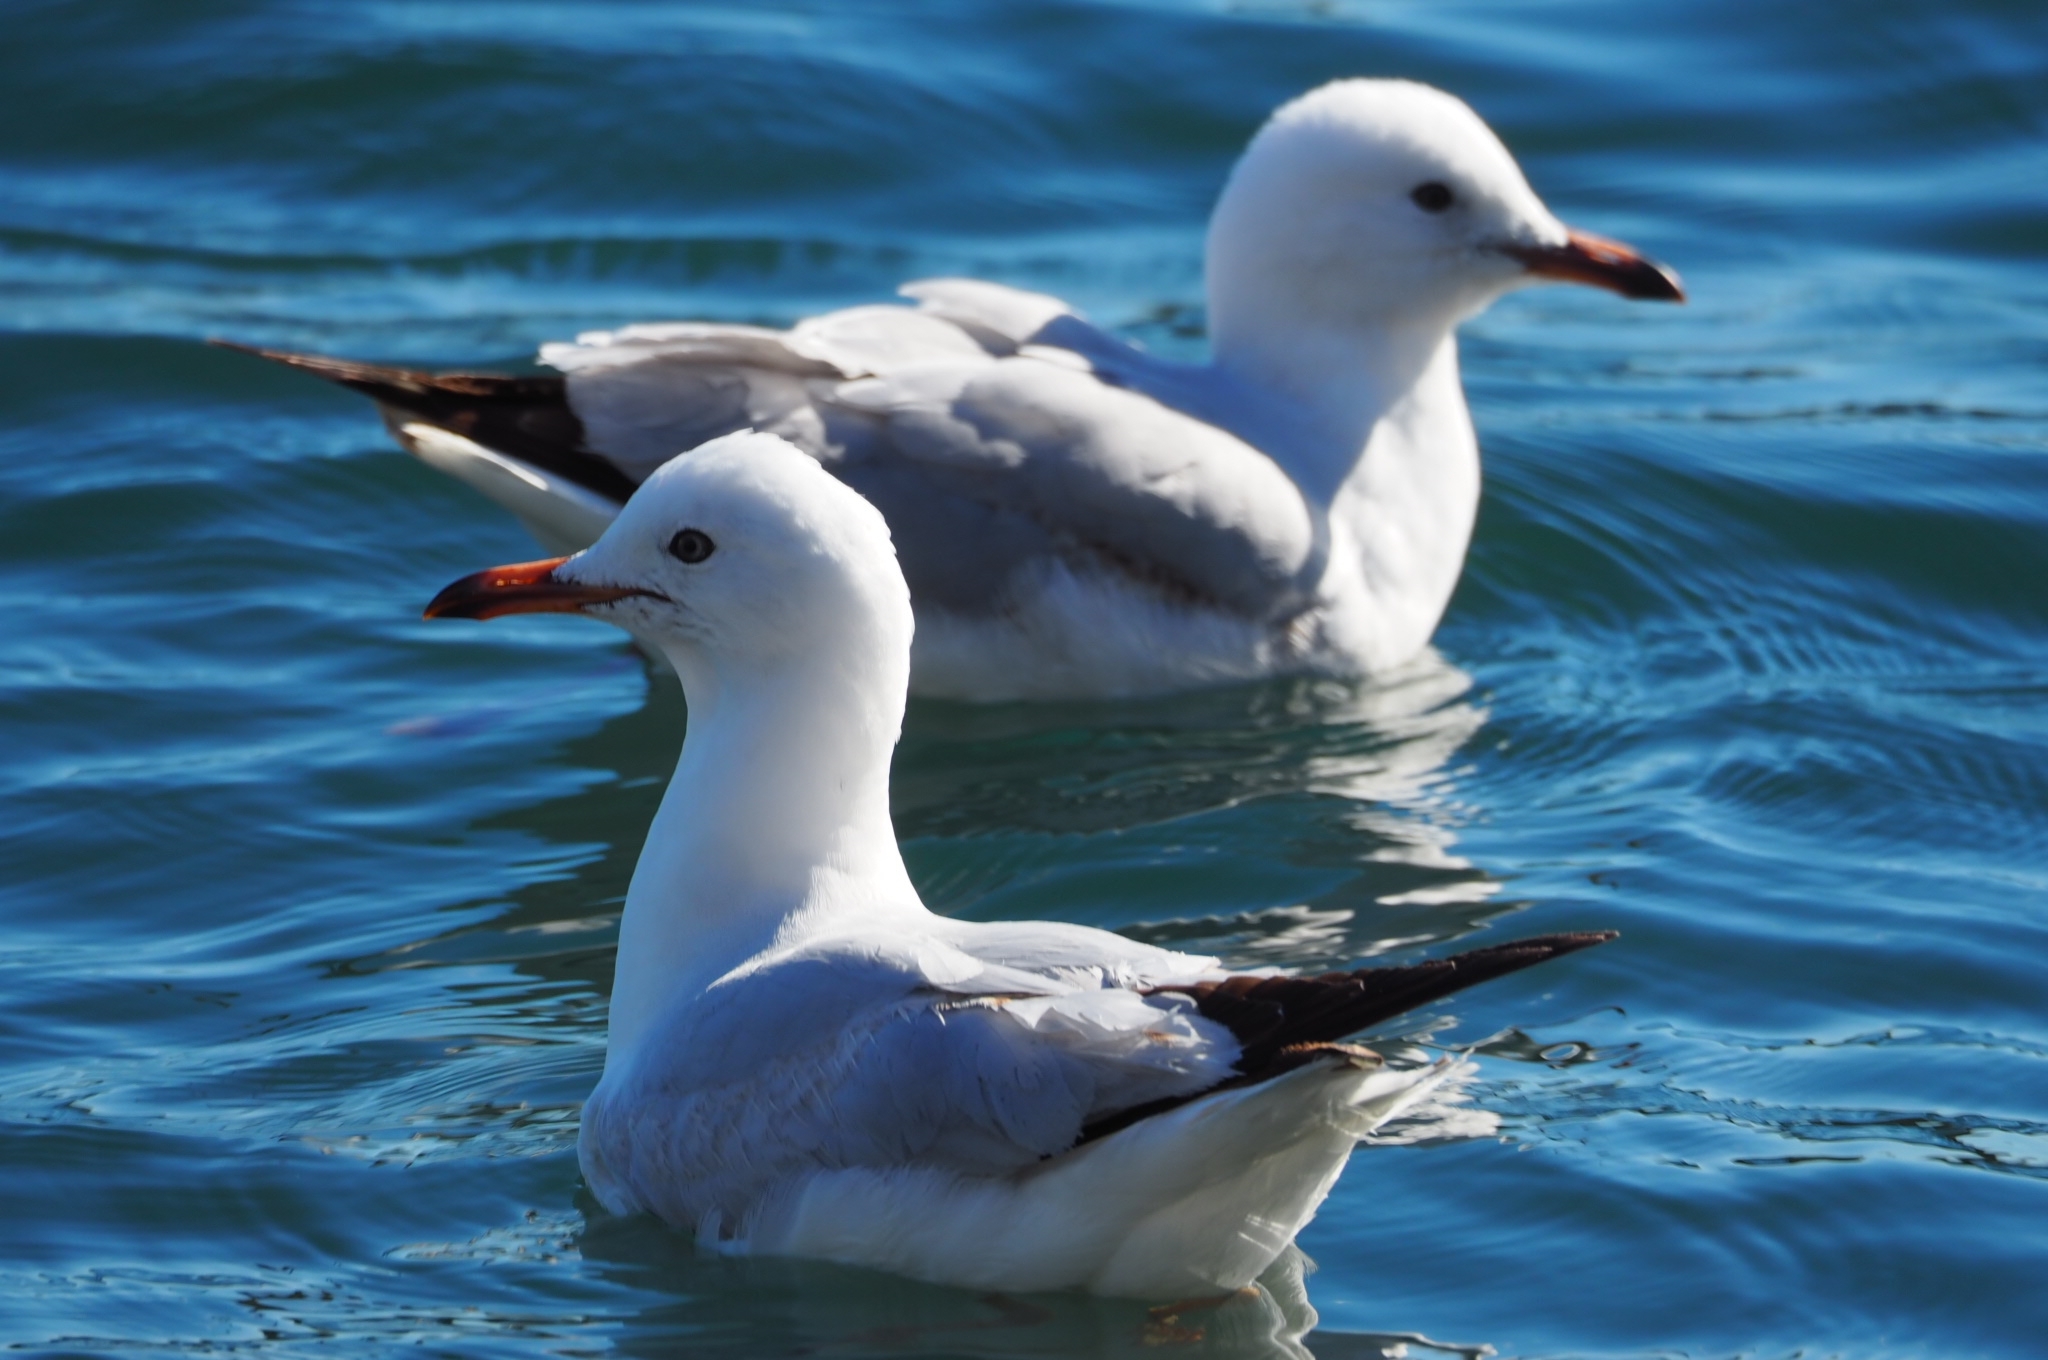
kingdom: Animalia
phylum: Chordata
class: Aves
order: Charadriiformes
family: Laridae
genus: Chroicocephalus
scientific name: Chroicocephalus novaehollandiae
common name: Silver gull
